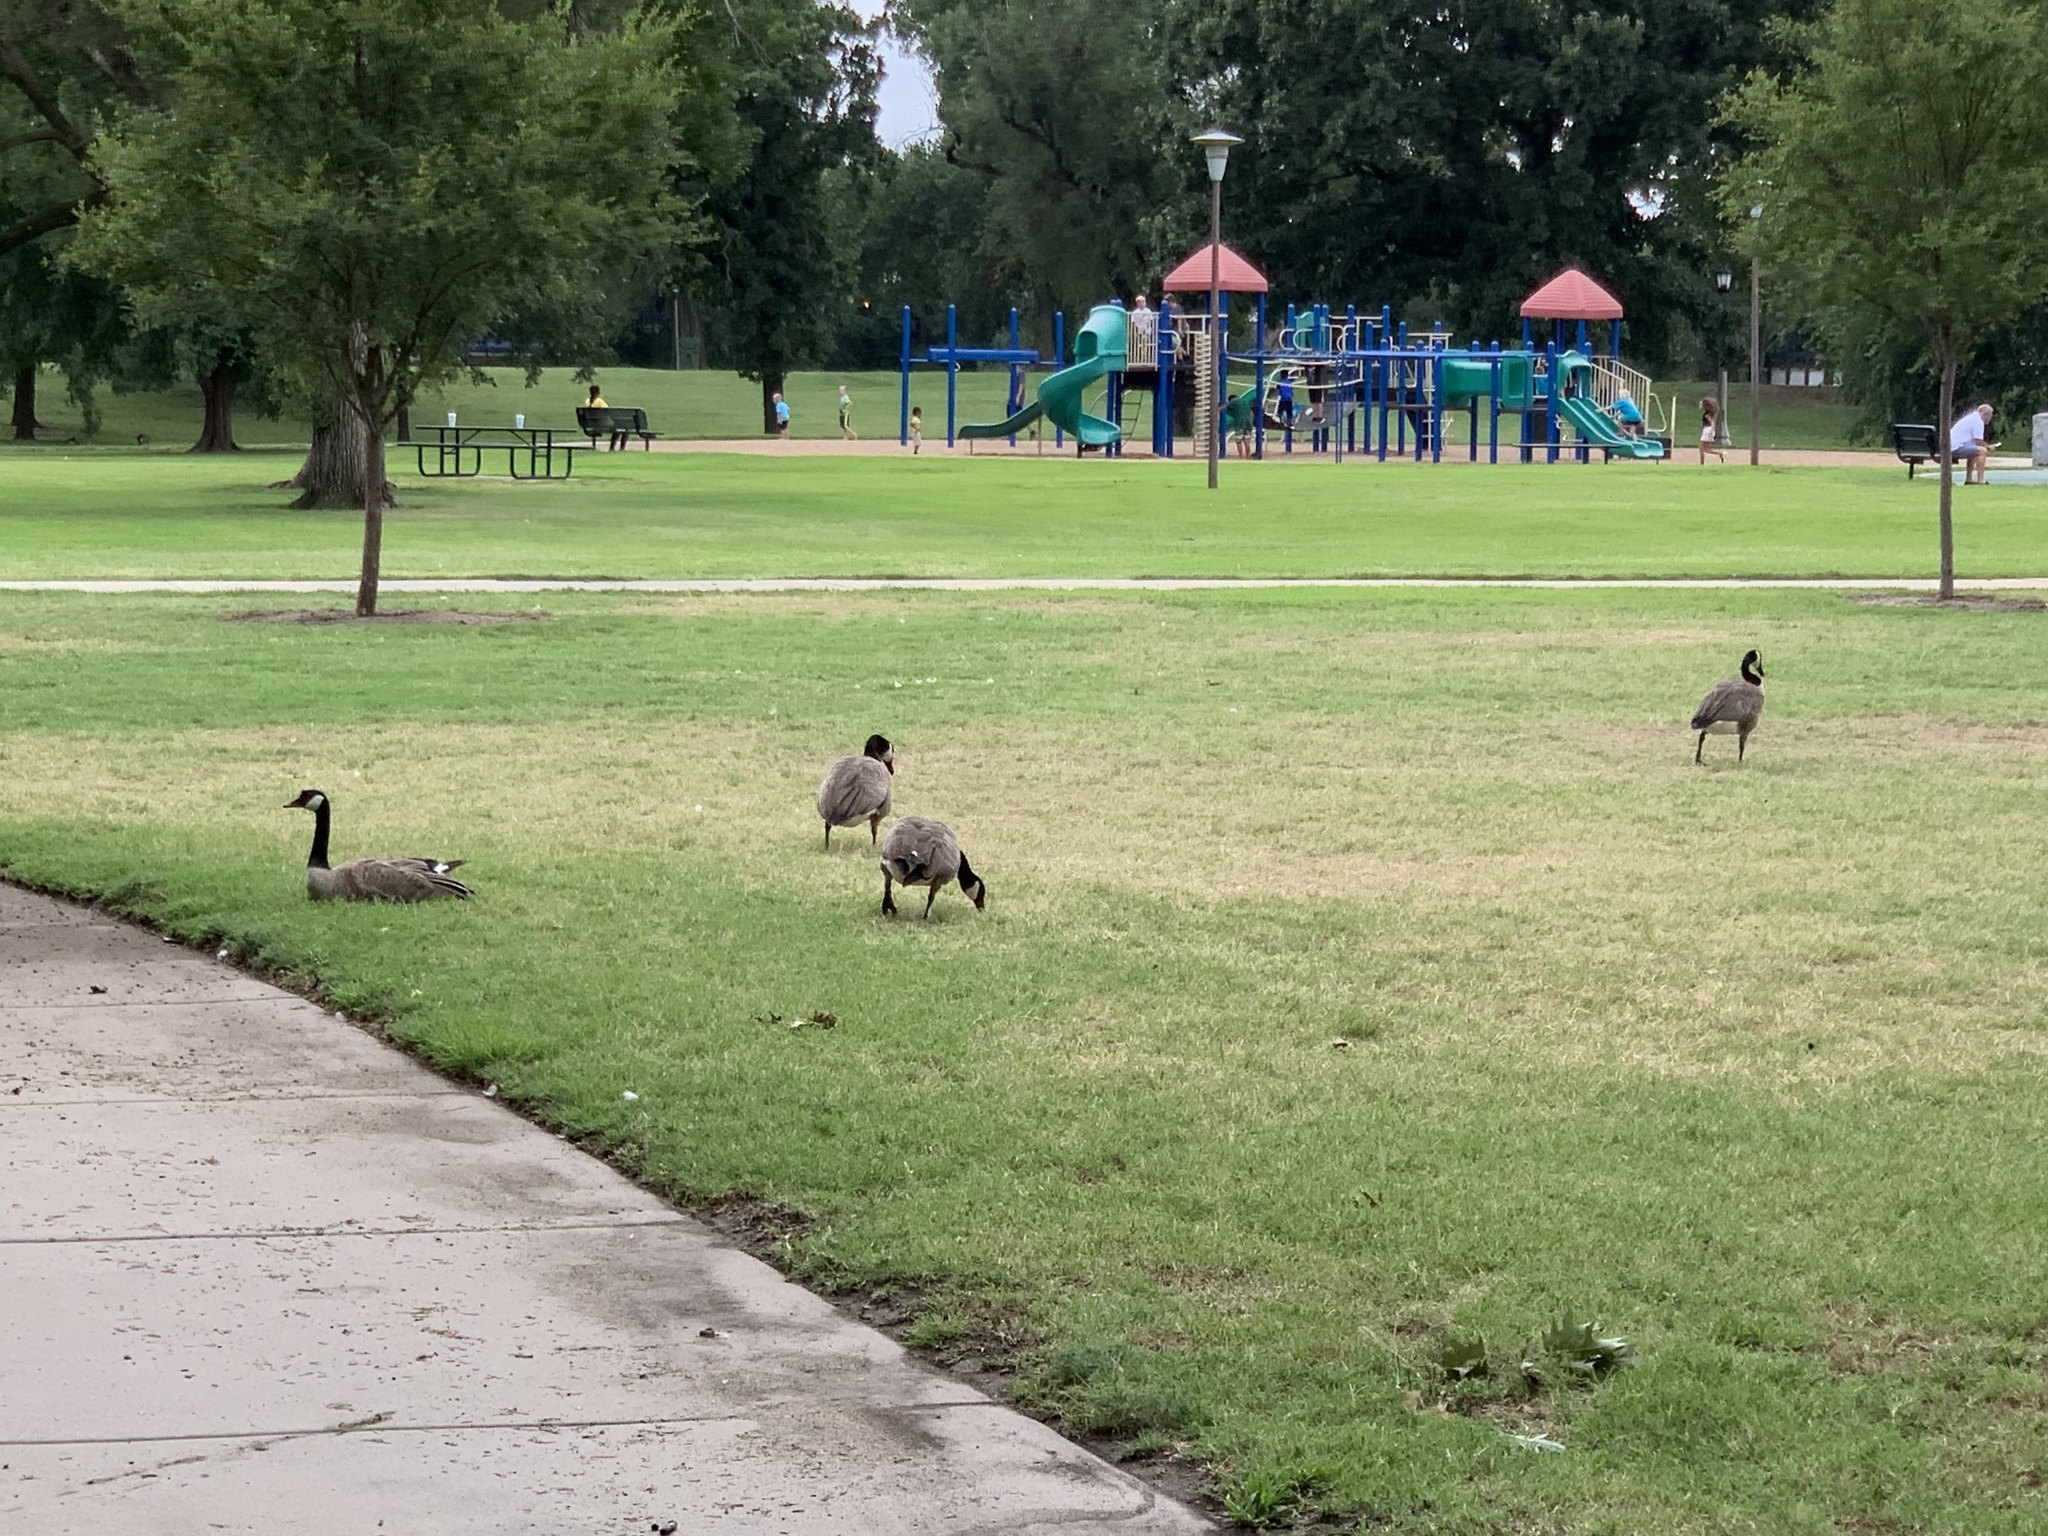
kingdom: Animalia
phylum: Chordata
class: Aves
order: Anseriformes
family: Anatidae
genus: Branta
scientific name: Branta canadensis
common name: Canada goose
